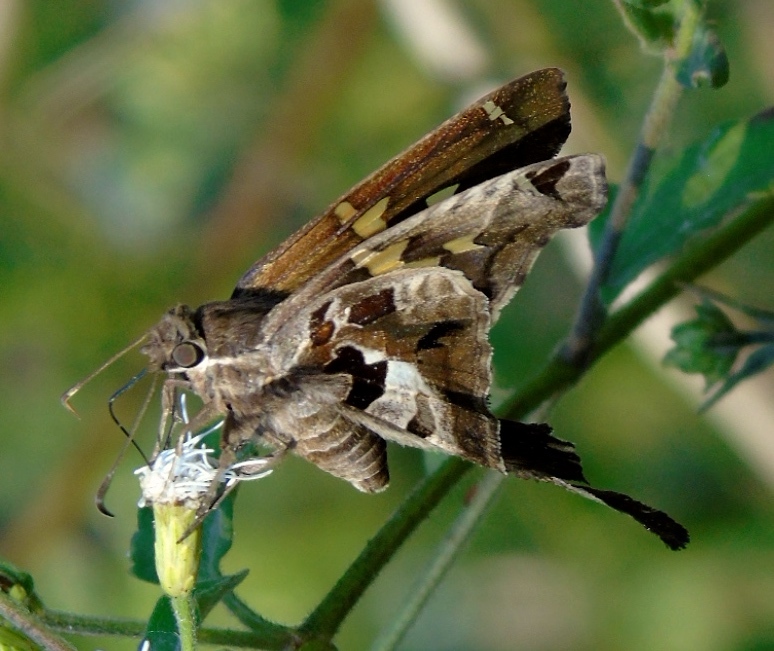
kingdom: Animalia
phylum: Arthropoda
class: Insecta
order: Lepidoptera
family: Hesperiidae
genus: Chioides
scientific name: Chioides zilpa
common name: Zilpa longtail
